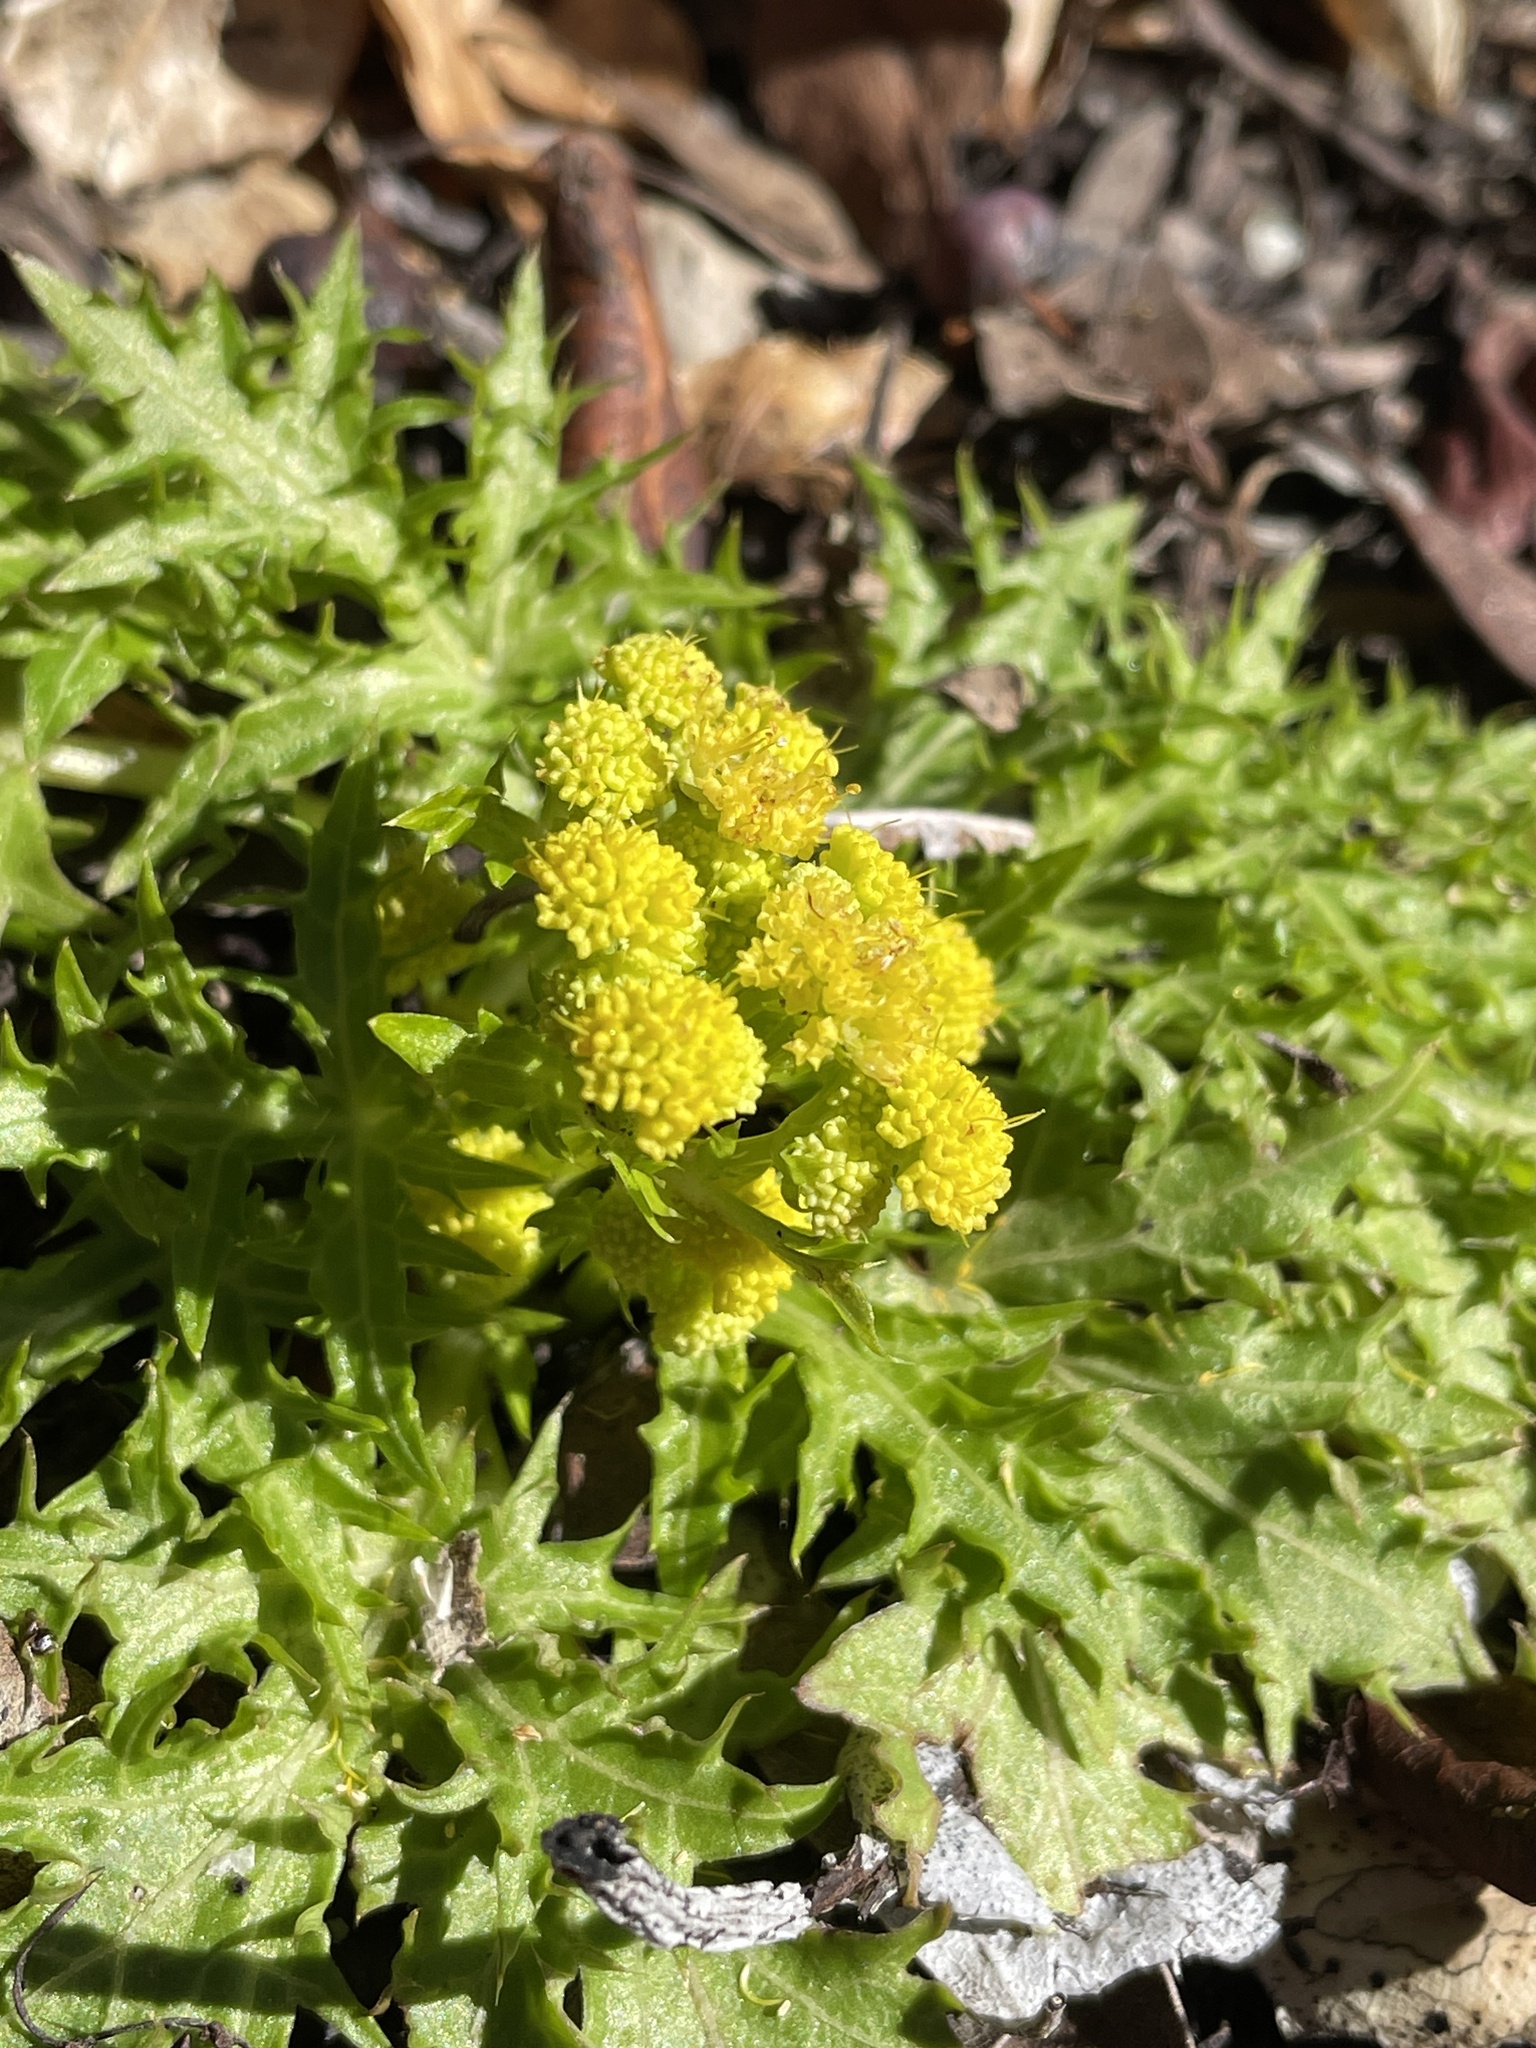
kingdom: Plantae
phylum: Tracheophyta
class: Magnoliopsida
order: Apiales
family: Apiaceae
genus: Sanicula
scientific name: Sanicula laciniata
